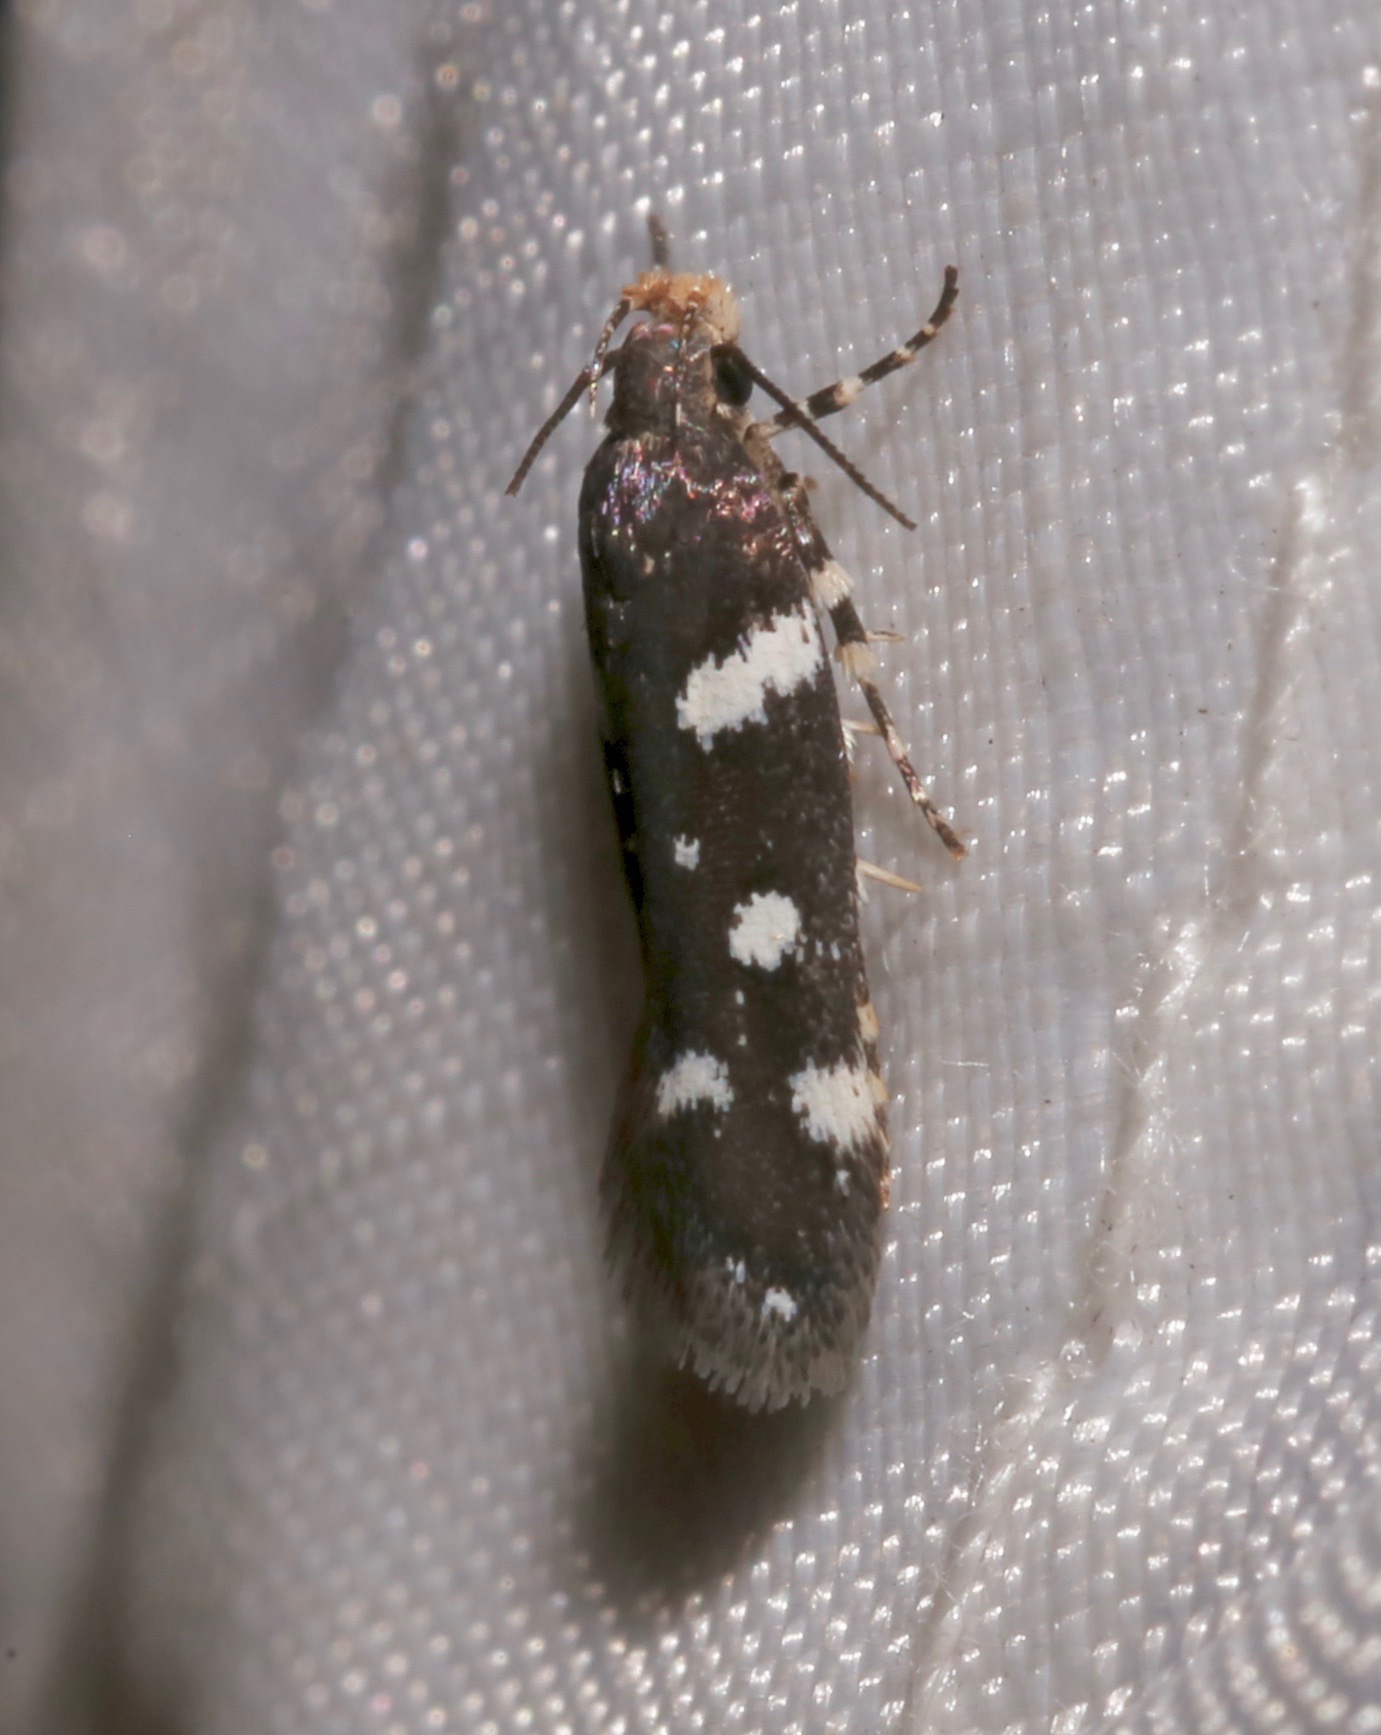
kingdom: Animalia
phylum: Arthropoda
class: Insecta
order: Lepidoptera
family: Gelechiidae
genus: Aroga
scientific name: Aroga compositella
